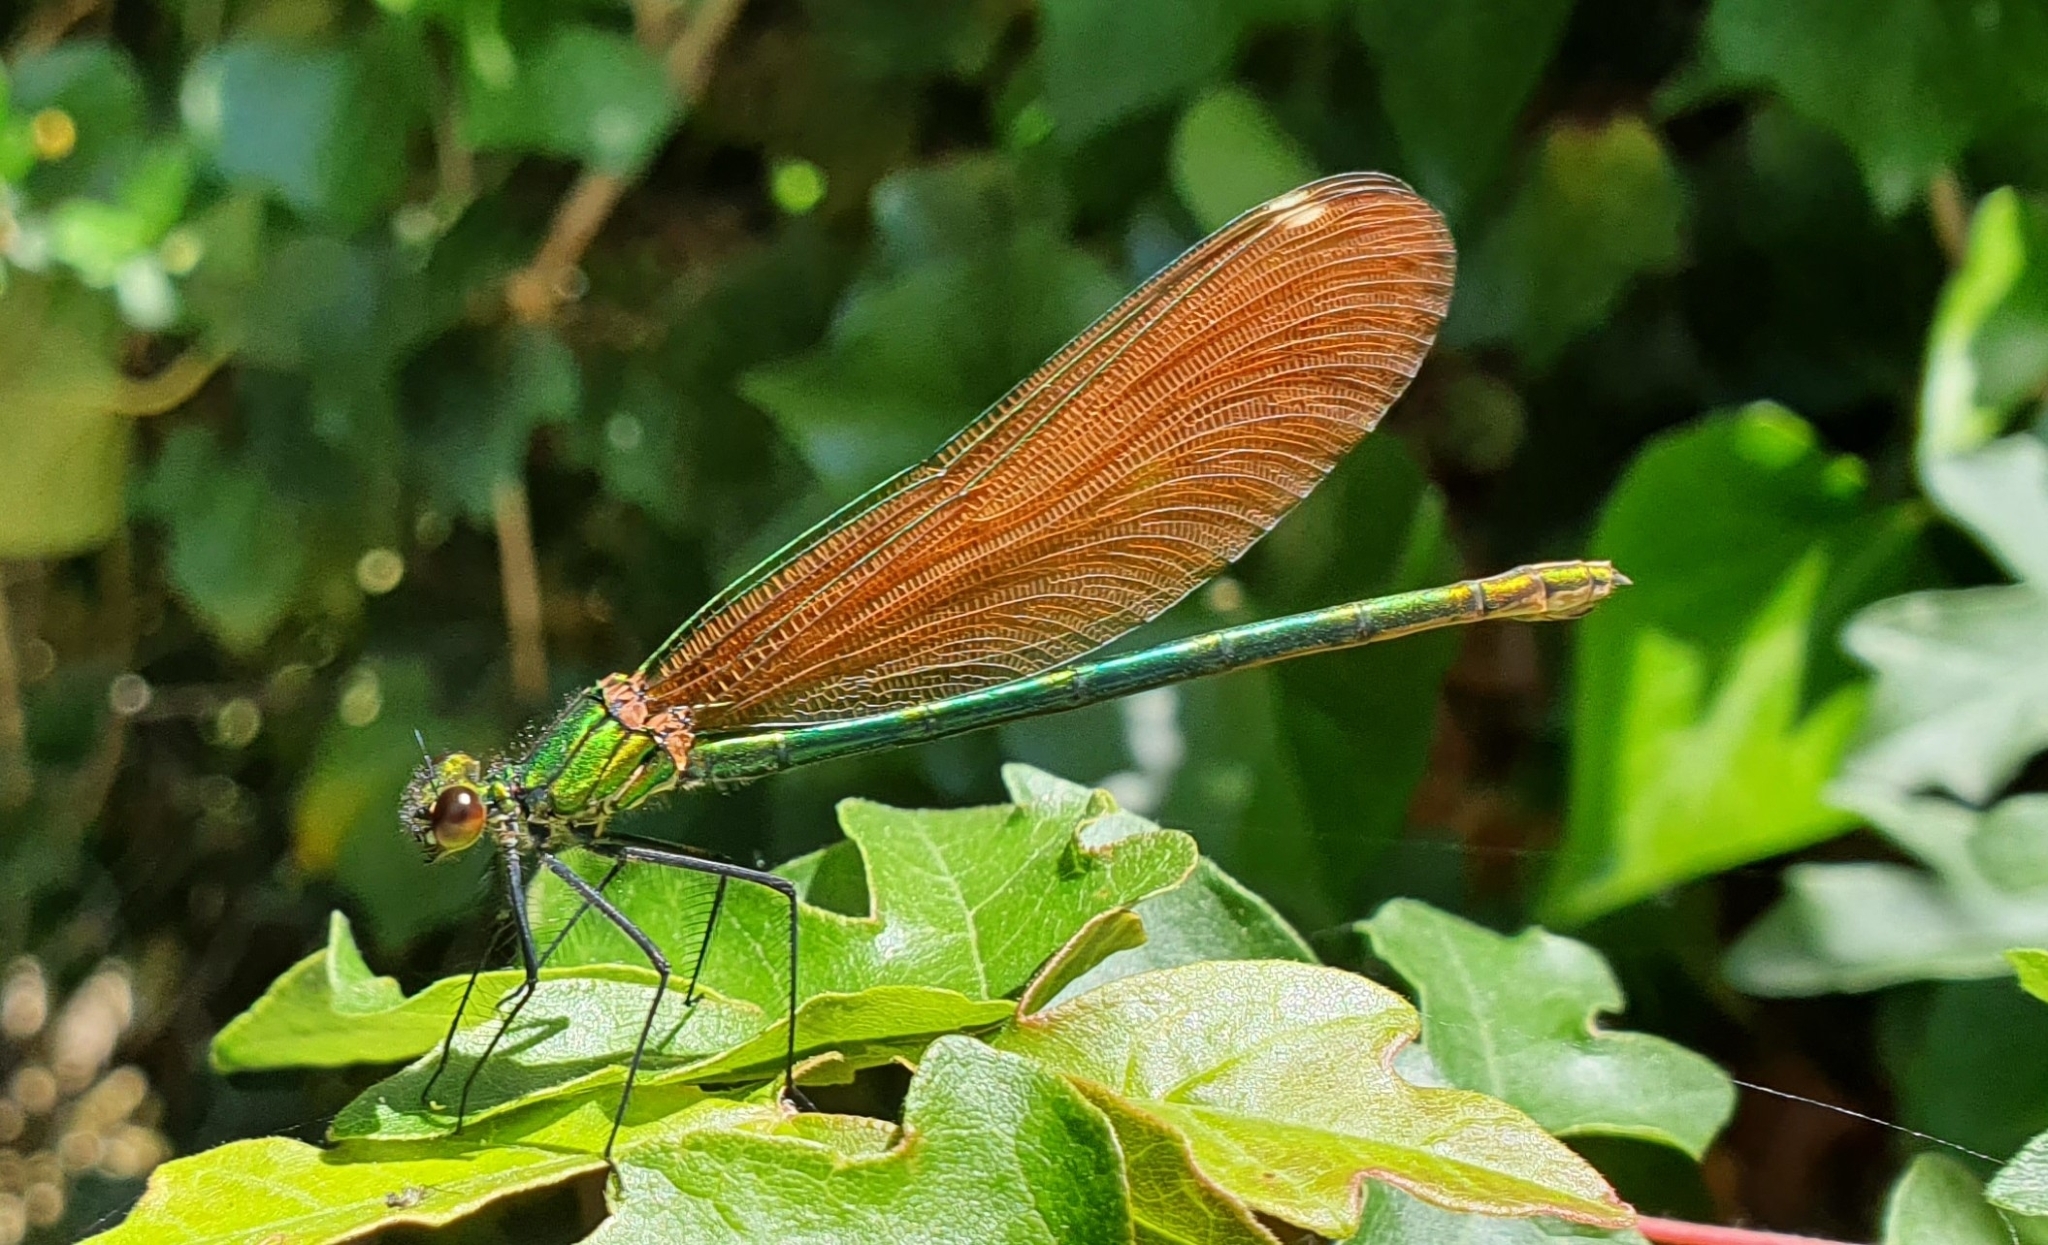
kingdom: Animalia
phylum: Arthropoda
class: Insecta
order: Odonata
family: Calopterygidae
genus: Calopteryx
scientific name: Calopteryx virgo
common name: Beautiful demoiselle
